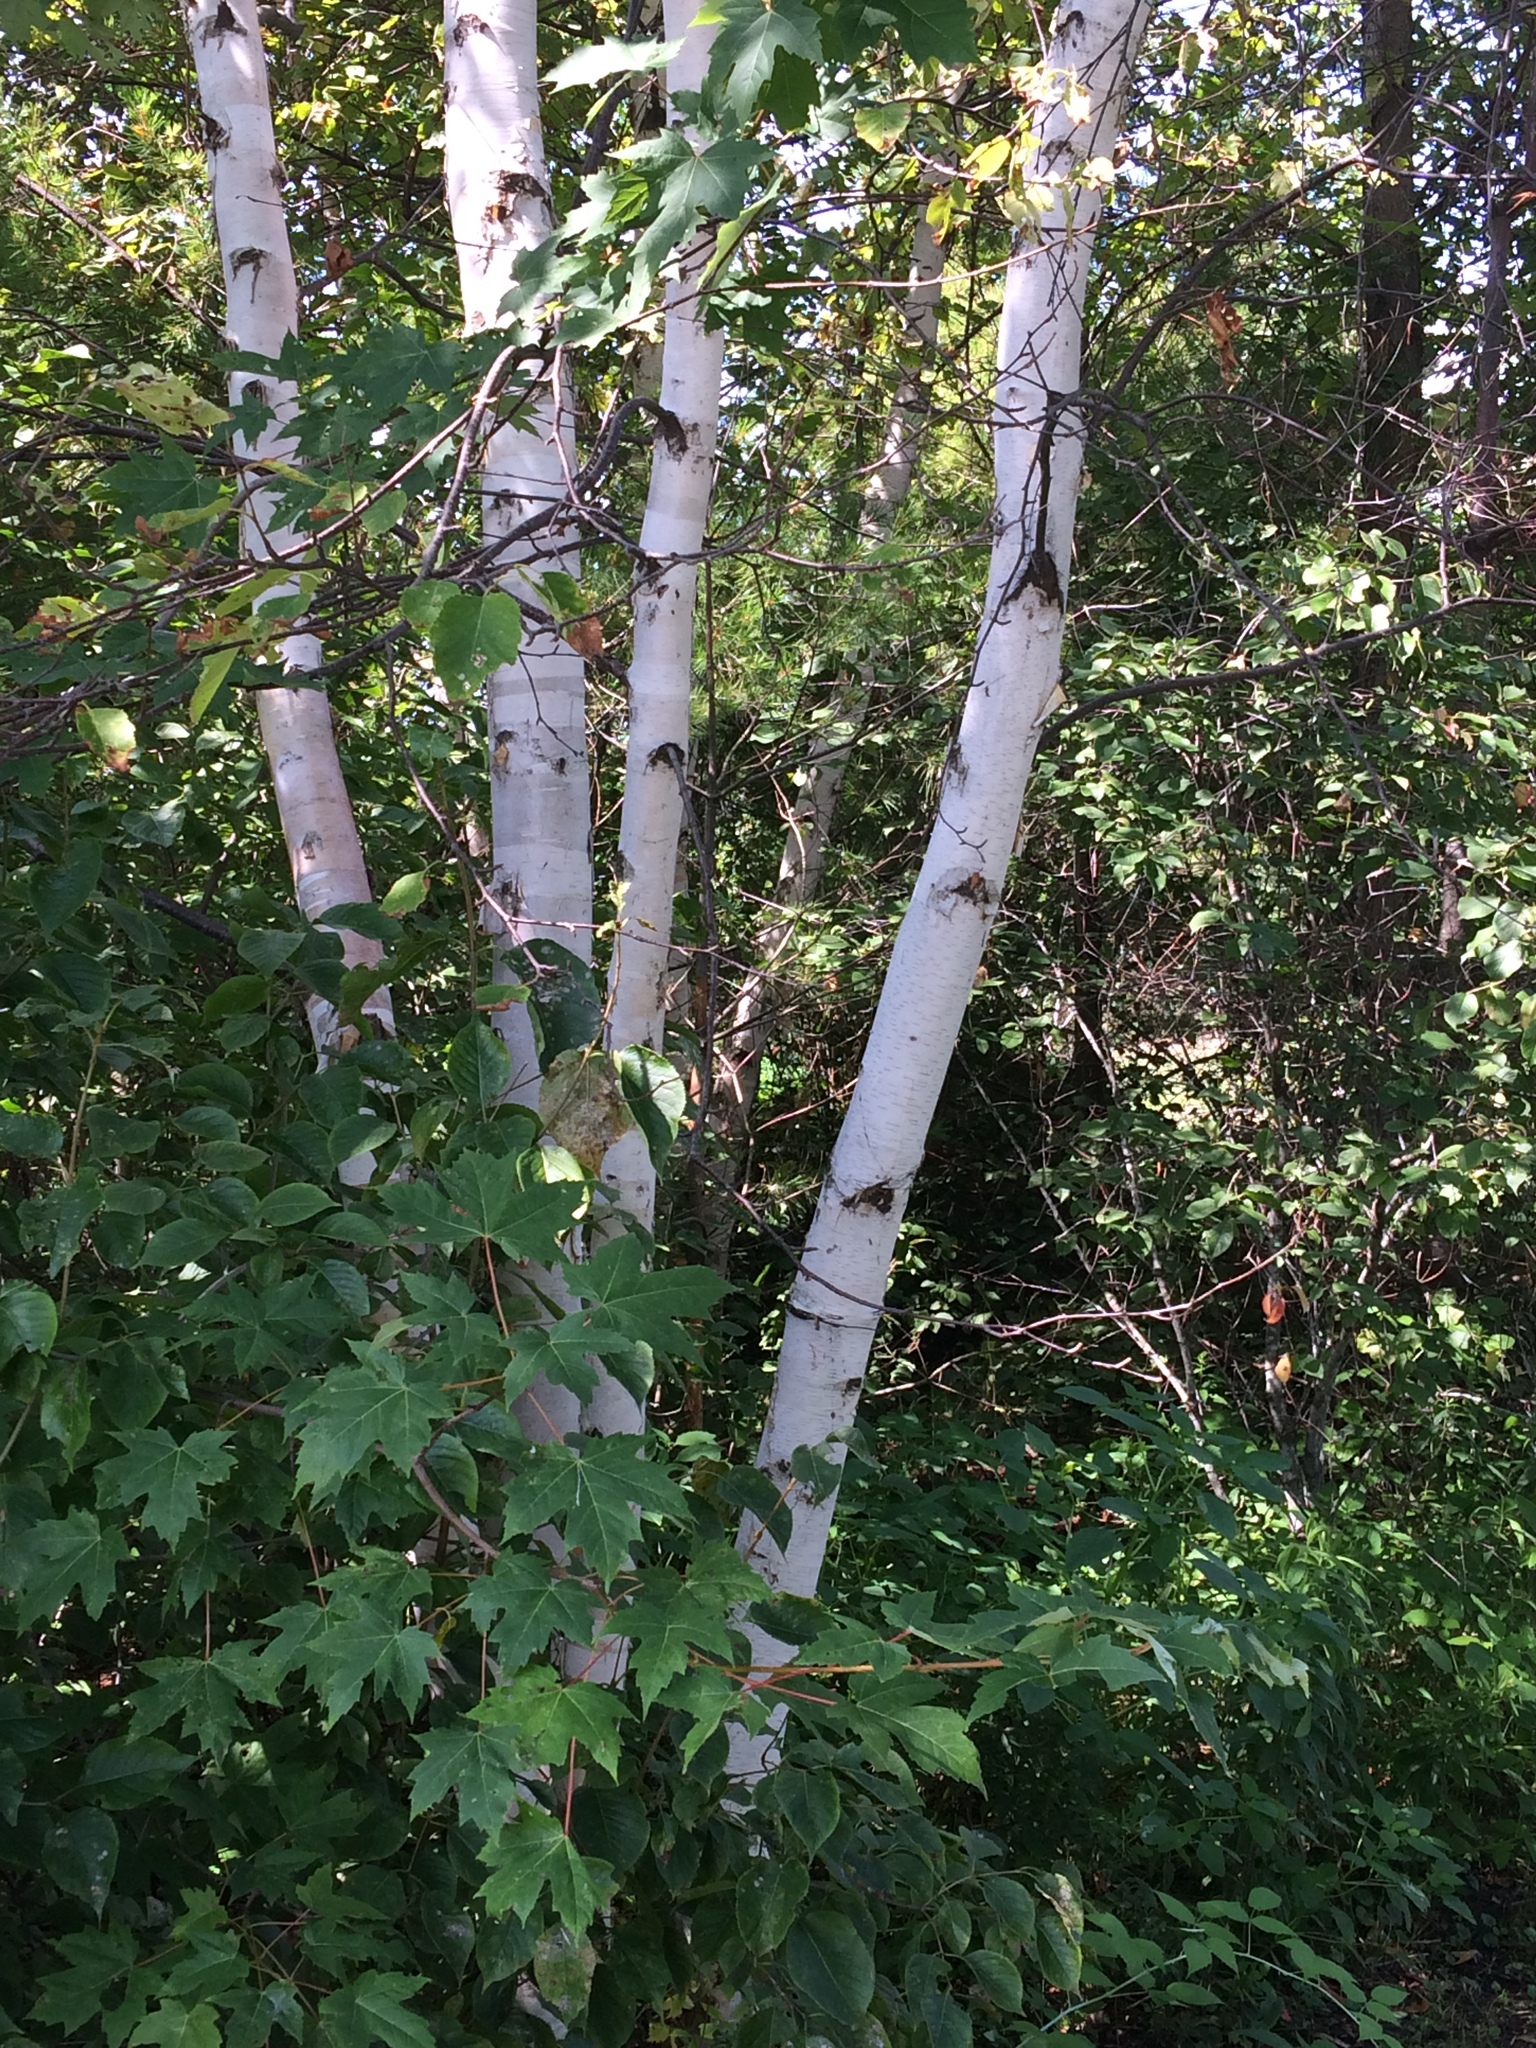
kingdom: Plantae
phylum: Tracheophyta
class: Magnoliopsida
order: Fagales
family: Betulaceae
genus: Betula
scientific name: Betula papyrifera
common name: Paper birch
